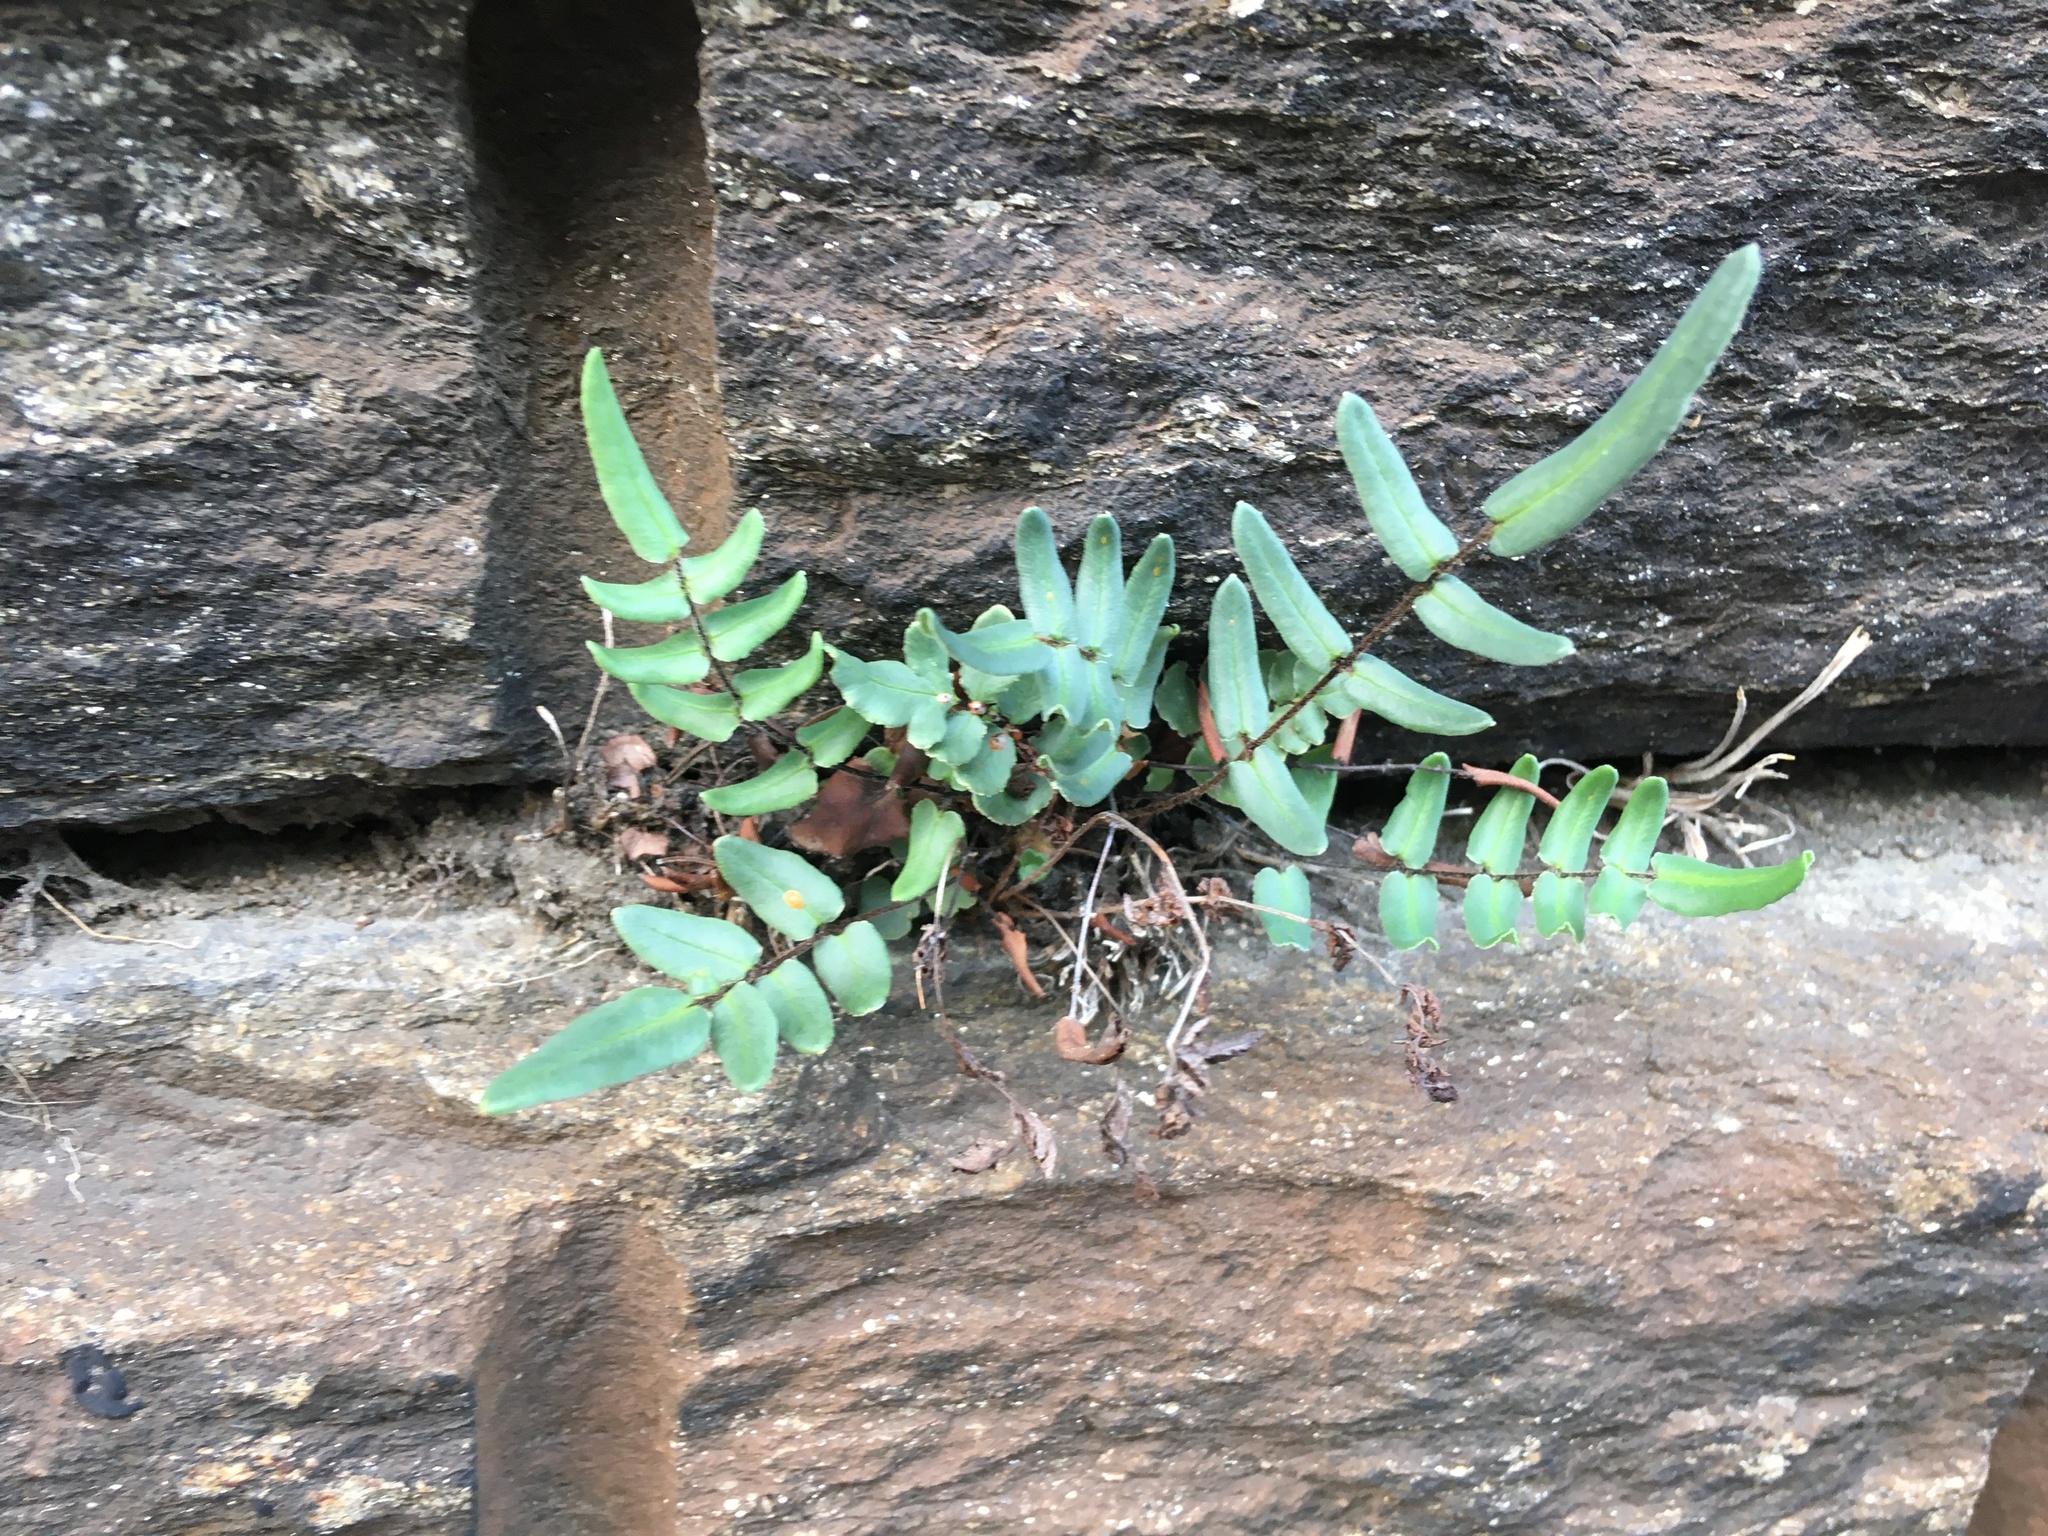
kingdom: Plantae
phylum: Tracheophyta
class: Polypodiopsida
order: Polypodiales
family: Pteridaceae
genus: Pellaea
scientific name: Pellaea atropurpurea
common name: Hairy cliffbrake
